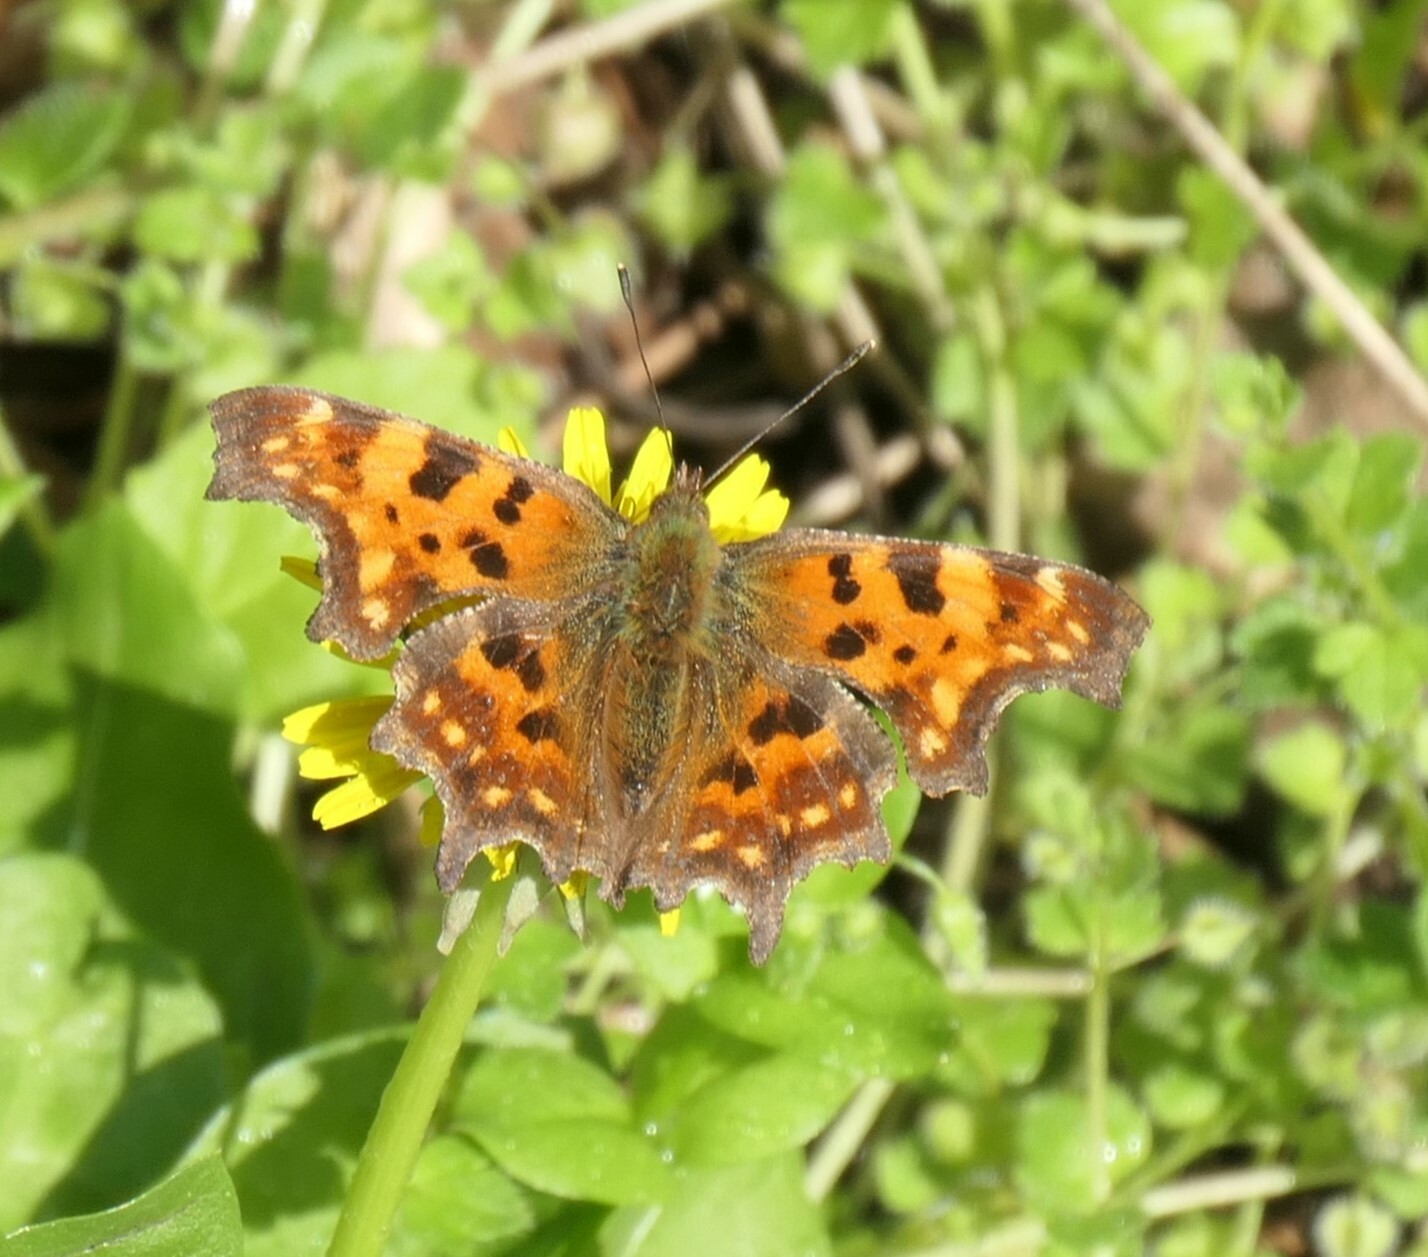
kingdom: Animalia
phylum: Arthropoda
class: Insecta
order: Lepidoptera
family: Nymphalidae
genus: Polygonia
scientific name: Polygonia c-album
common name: Comma
